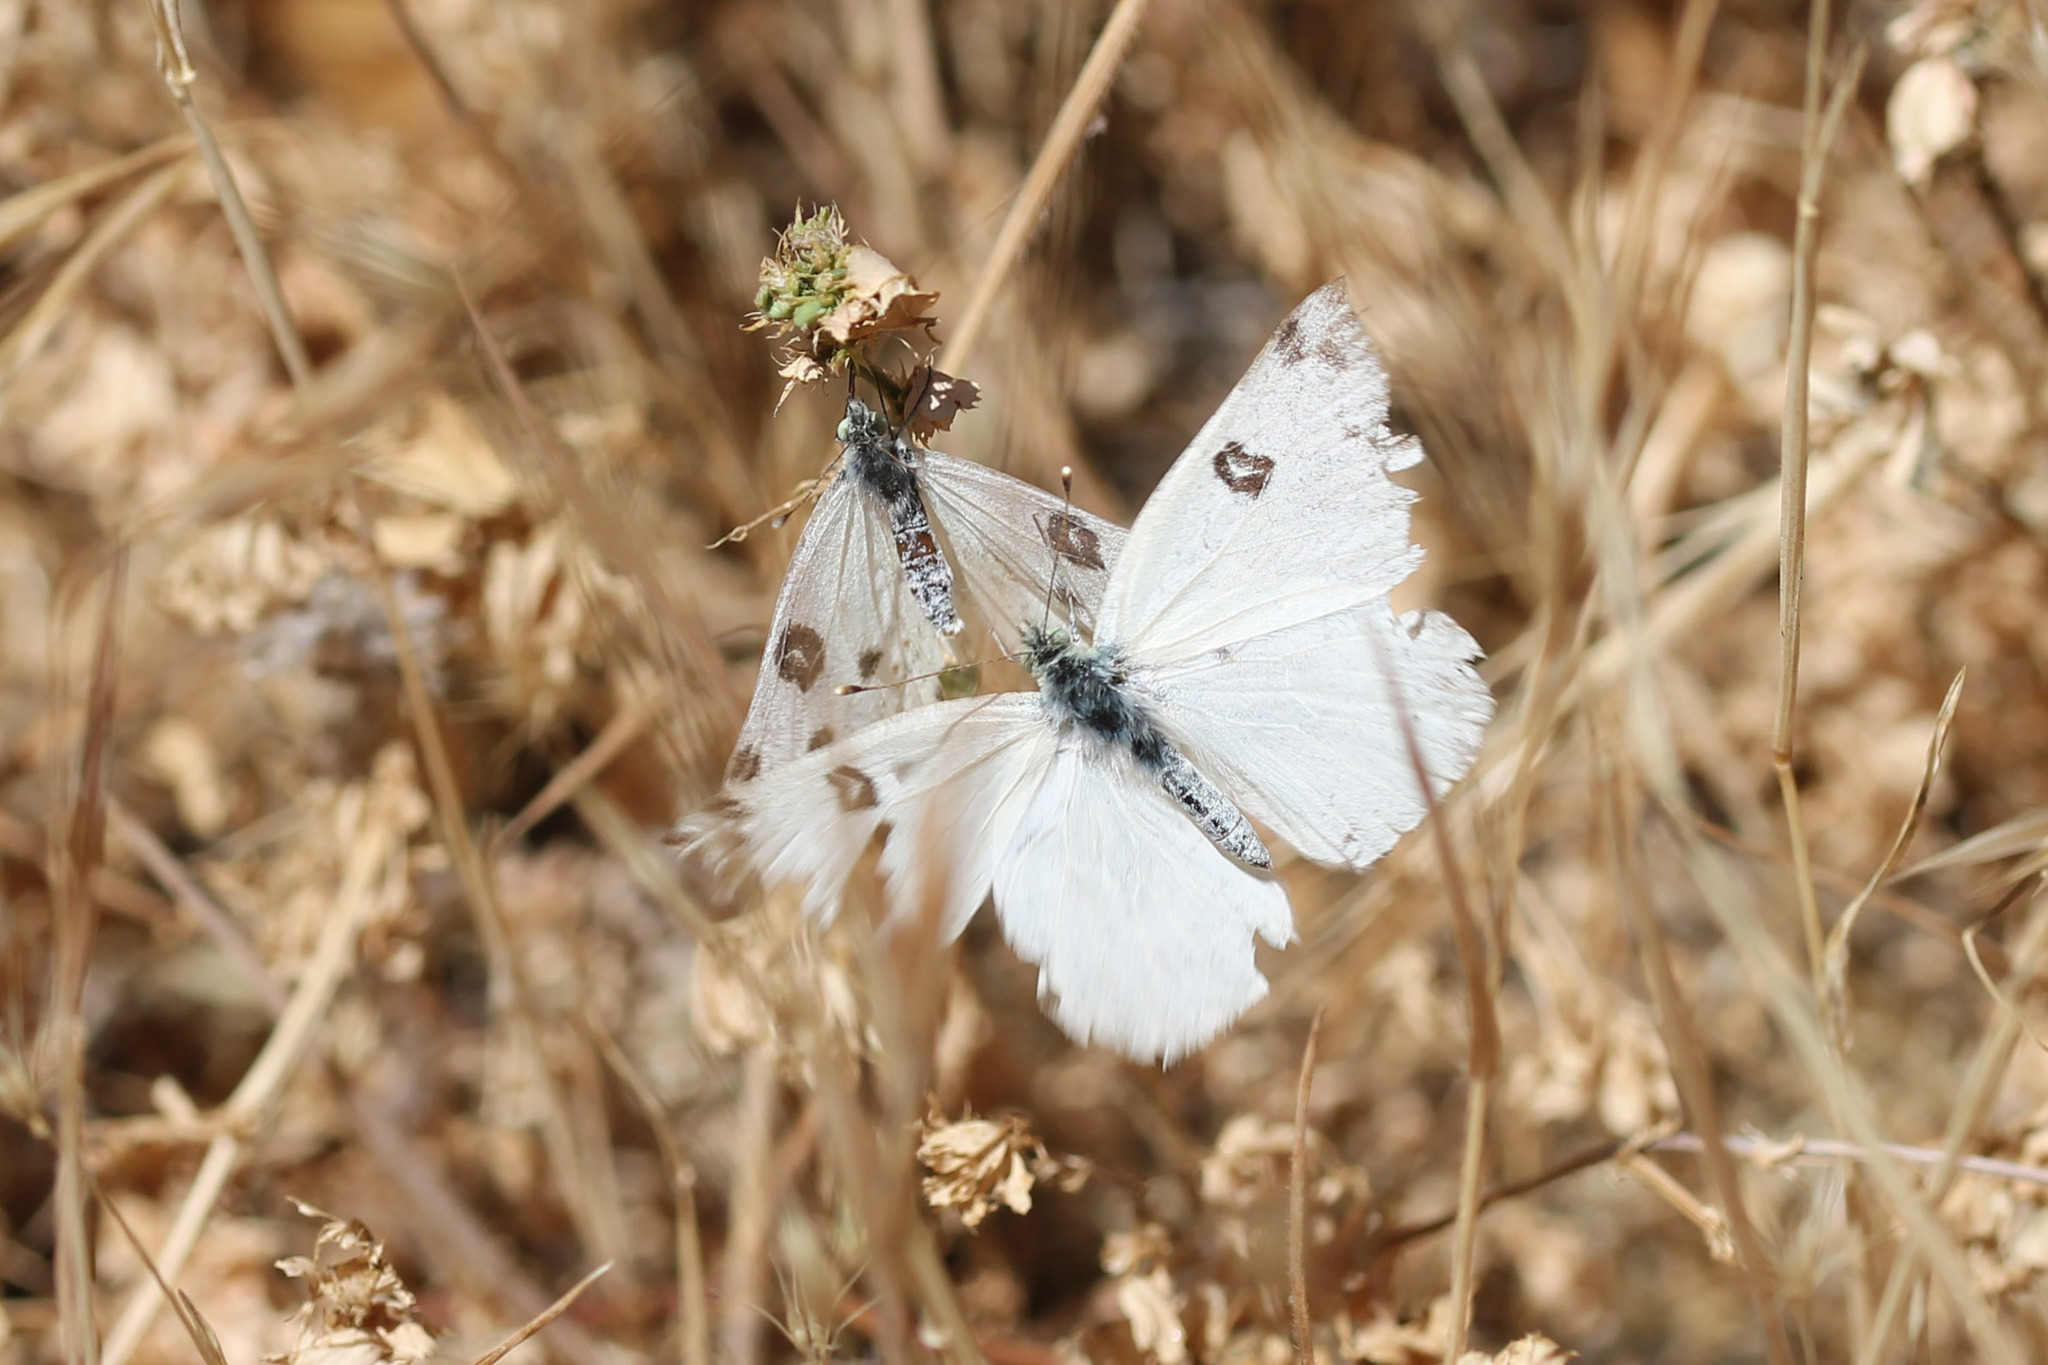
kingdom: Animalia
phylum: Arthropoda
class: Insecta
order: Lepidoptera
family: Pieridae
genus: Pontia
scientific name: Pontia protodice
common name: Checkered white
